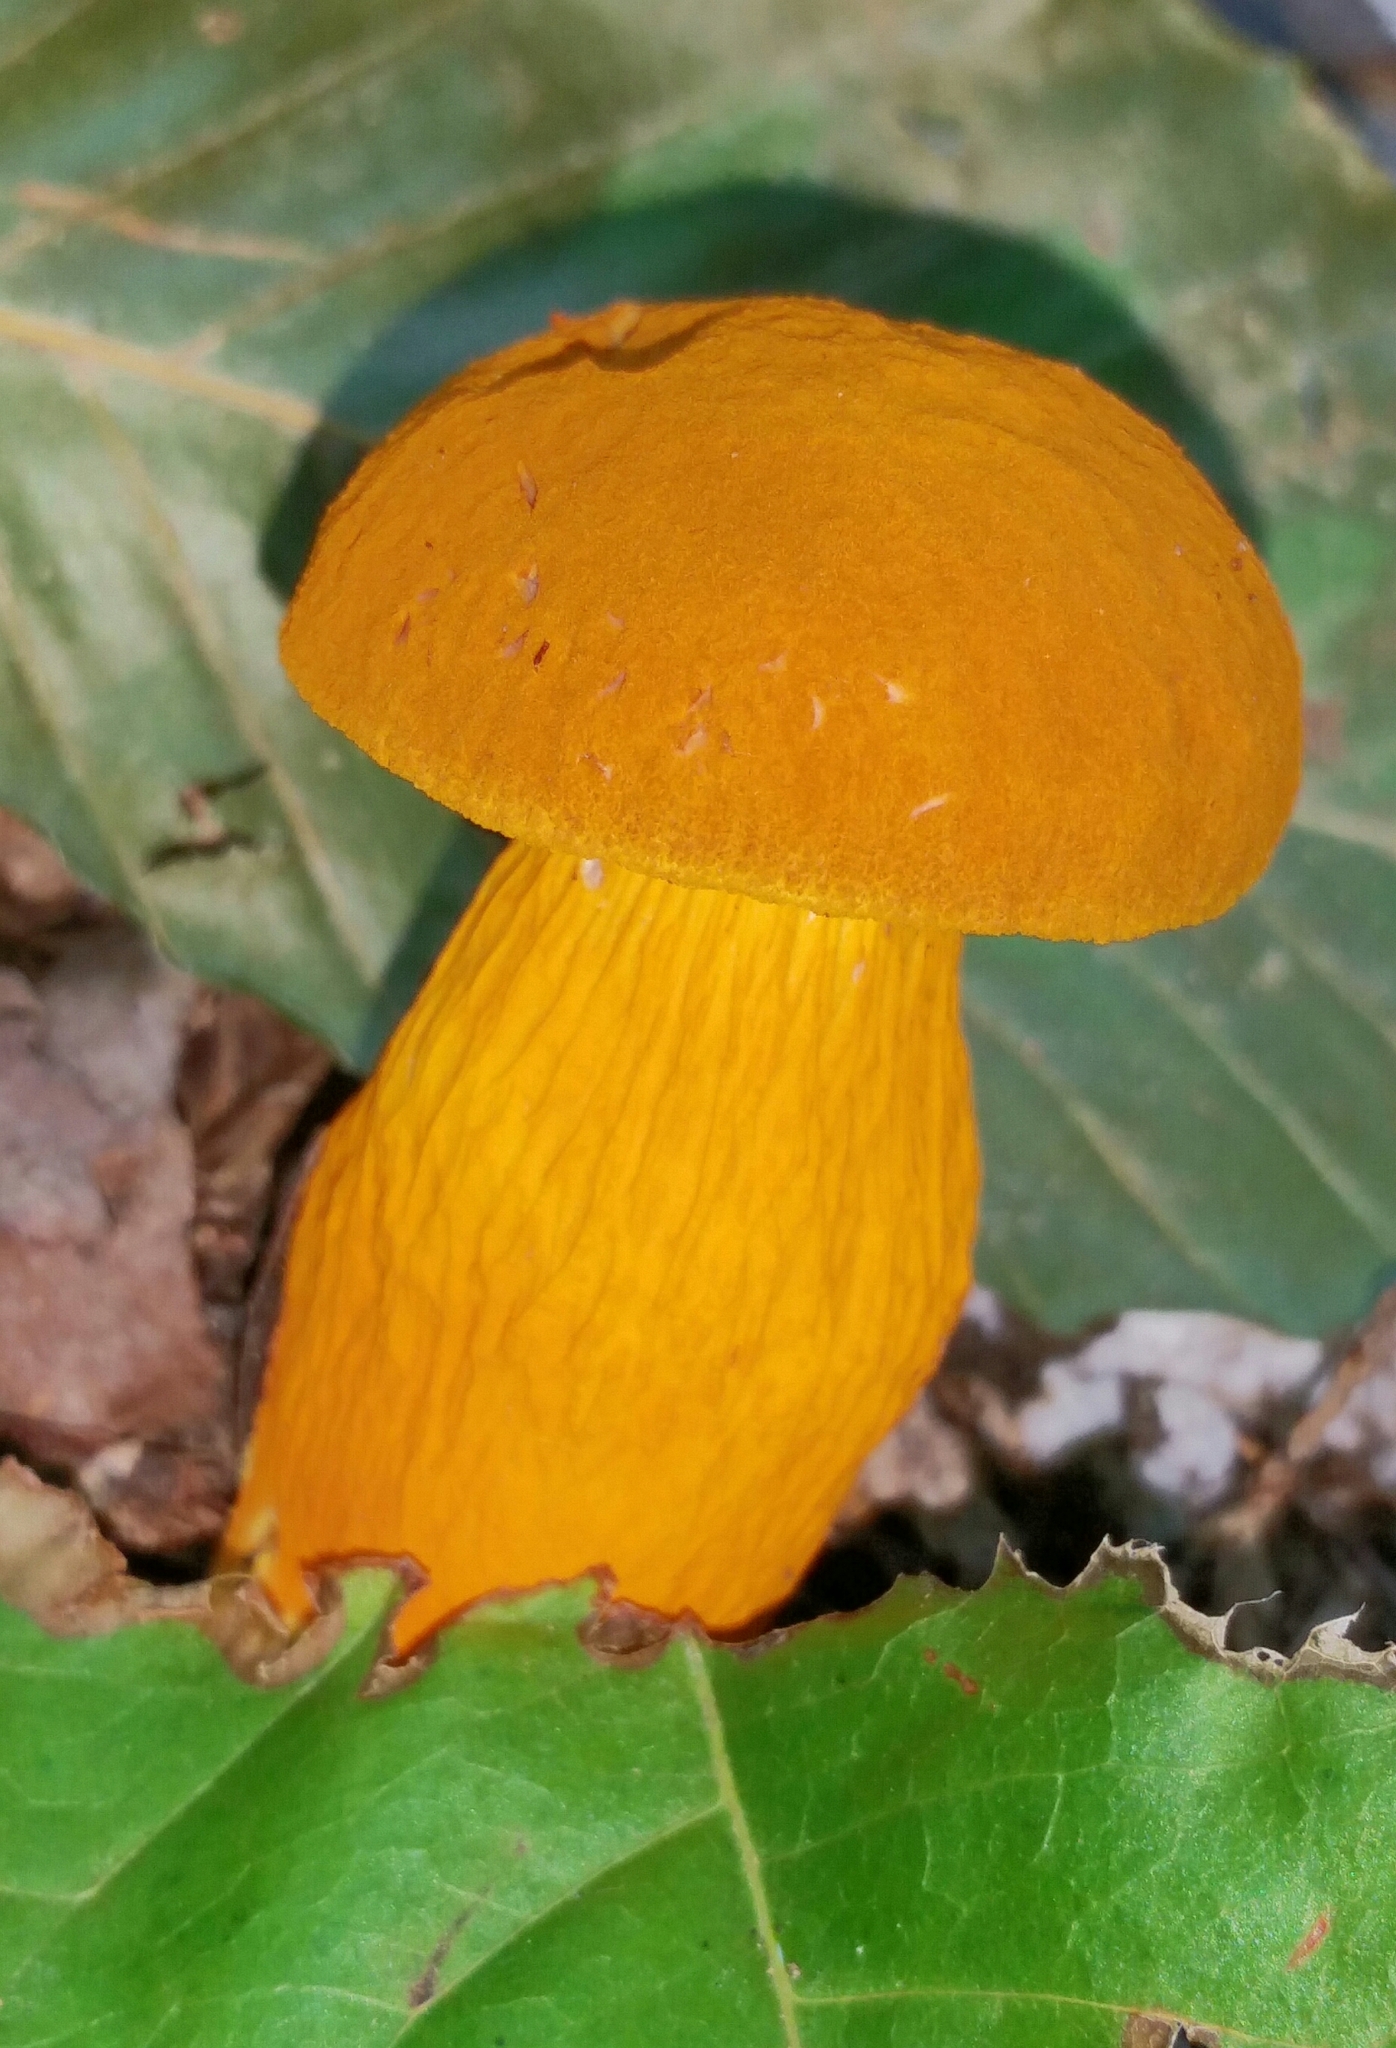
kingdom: Fungi
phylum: Basidiomycota
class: Agaricomycetes
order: Boletales
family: Boletaceae
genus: Aureoboletus
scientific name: Aureoboletus auriflammeus
